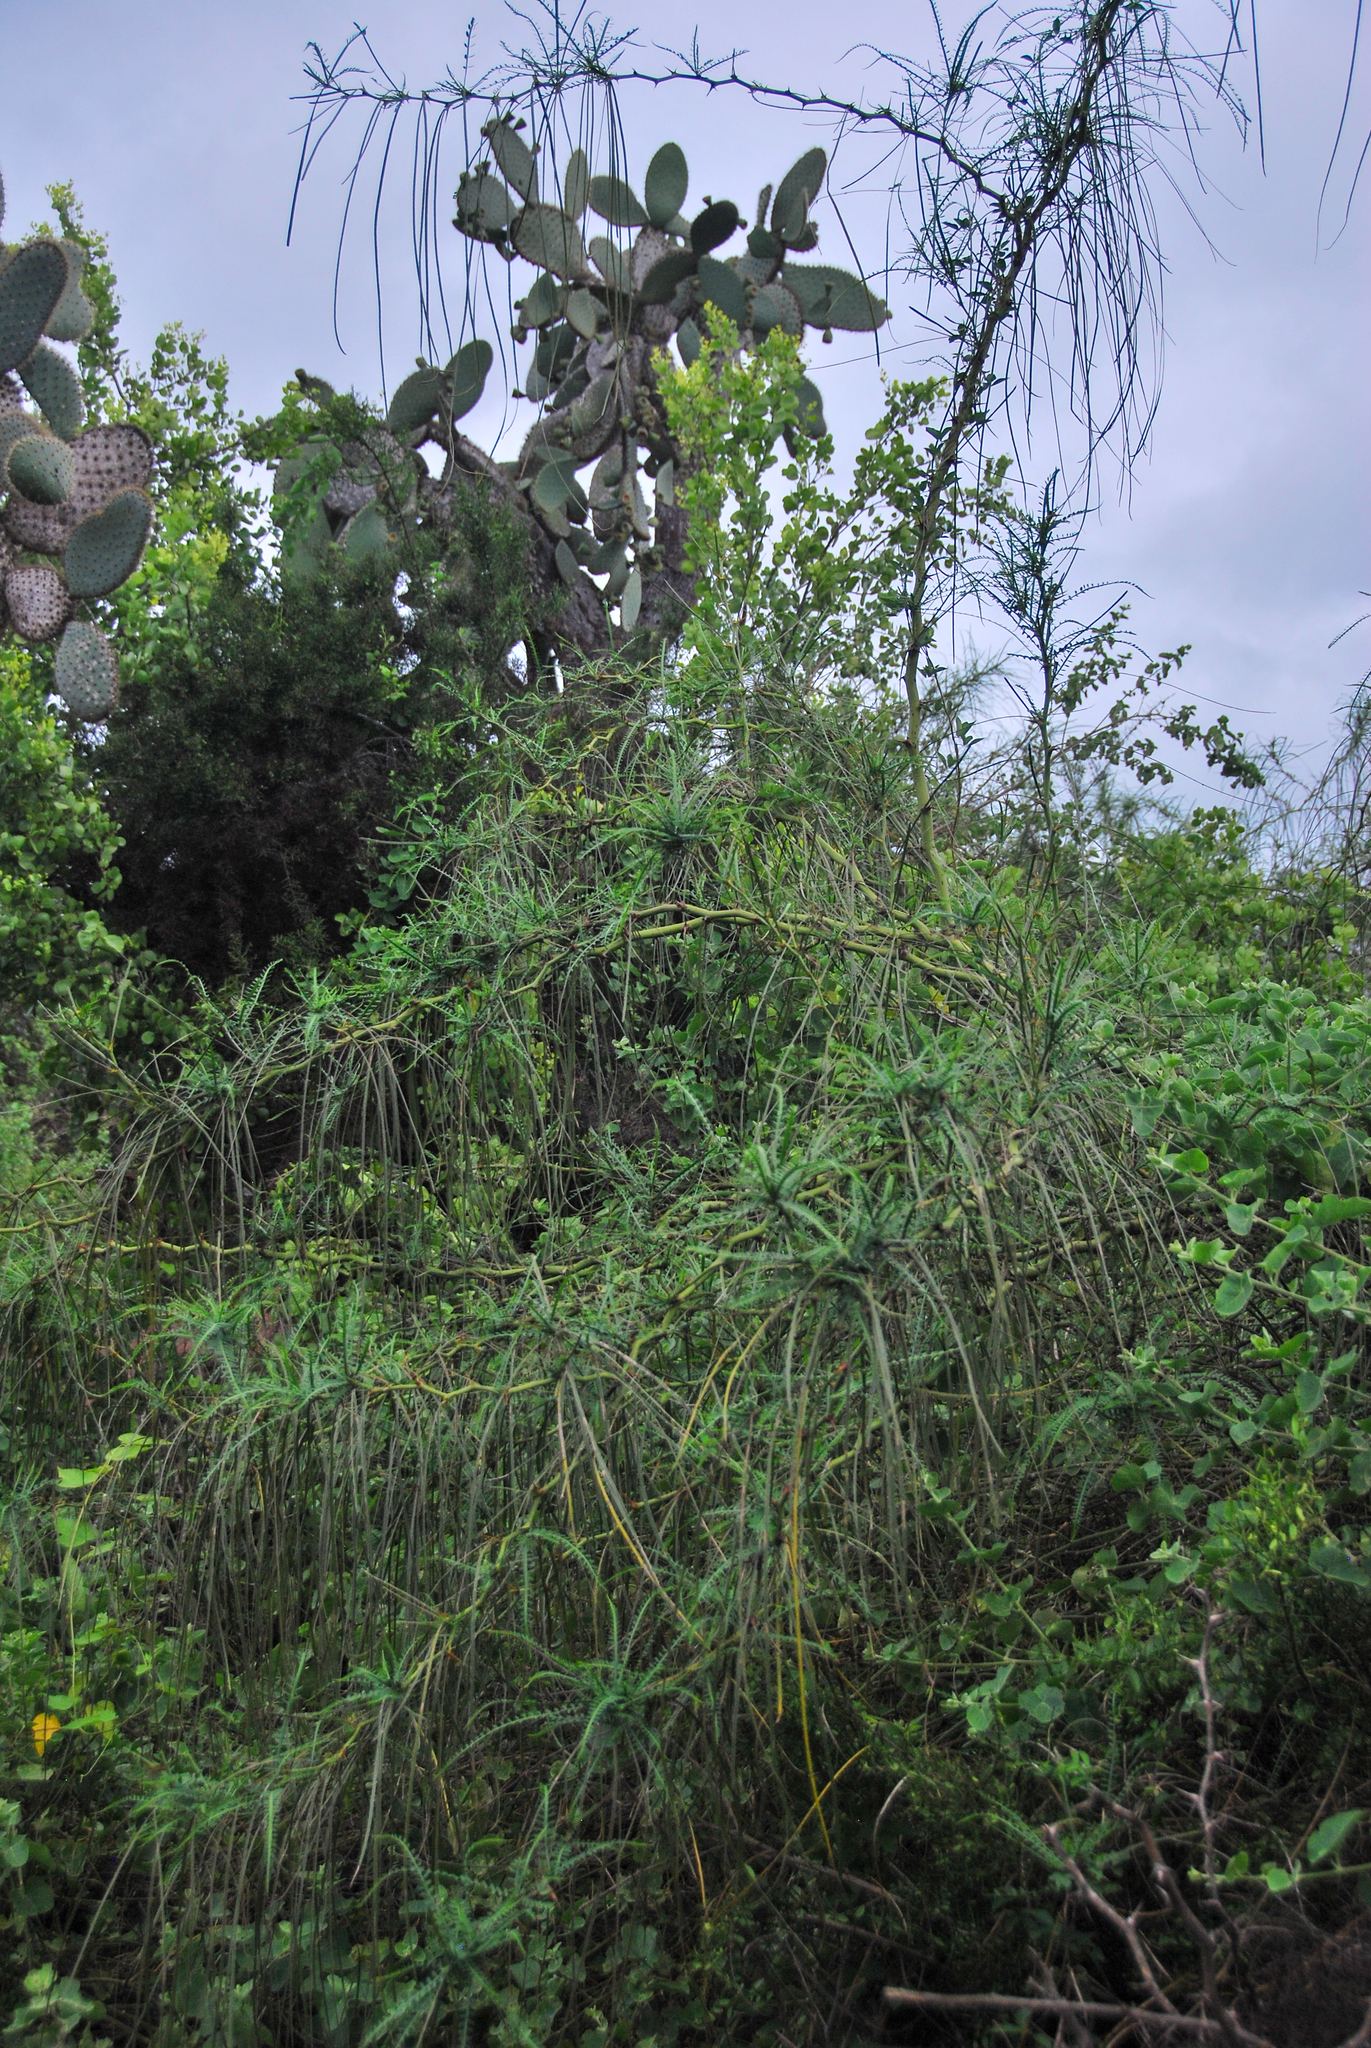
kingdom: Plantae
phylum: Tracheophyta
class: Magnoliopsida
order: Fabales
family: Fabaceae
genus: Parkinsonia
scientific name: Parkinsonia aculeata
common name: Jerusalem thorn
